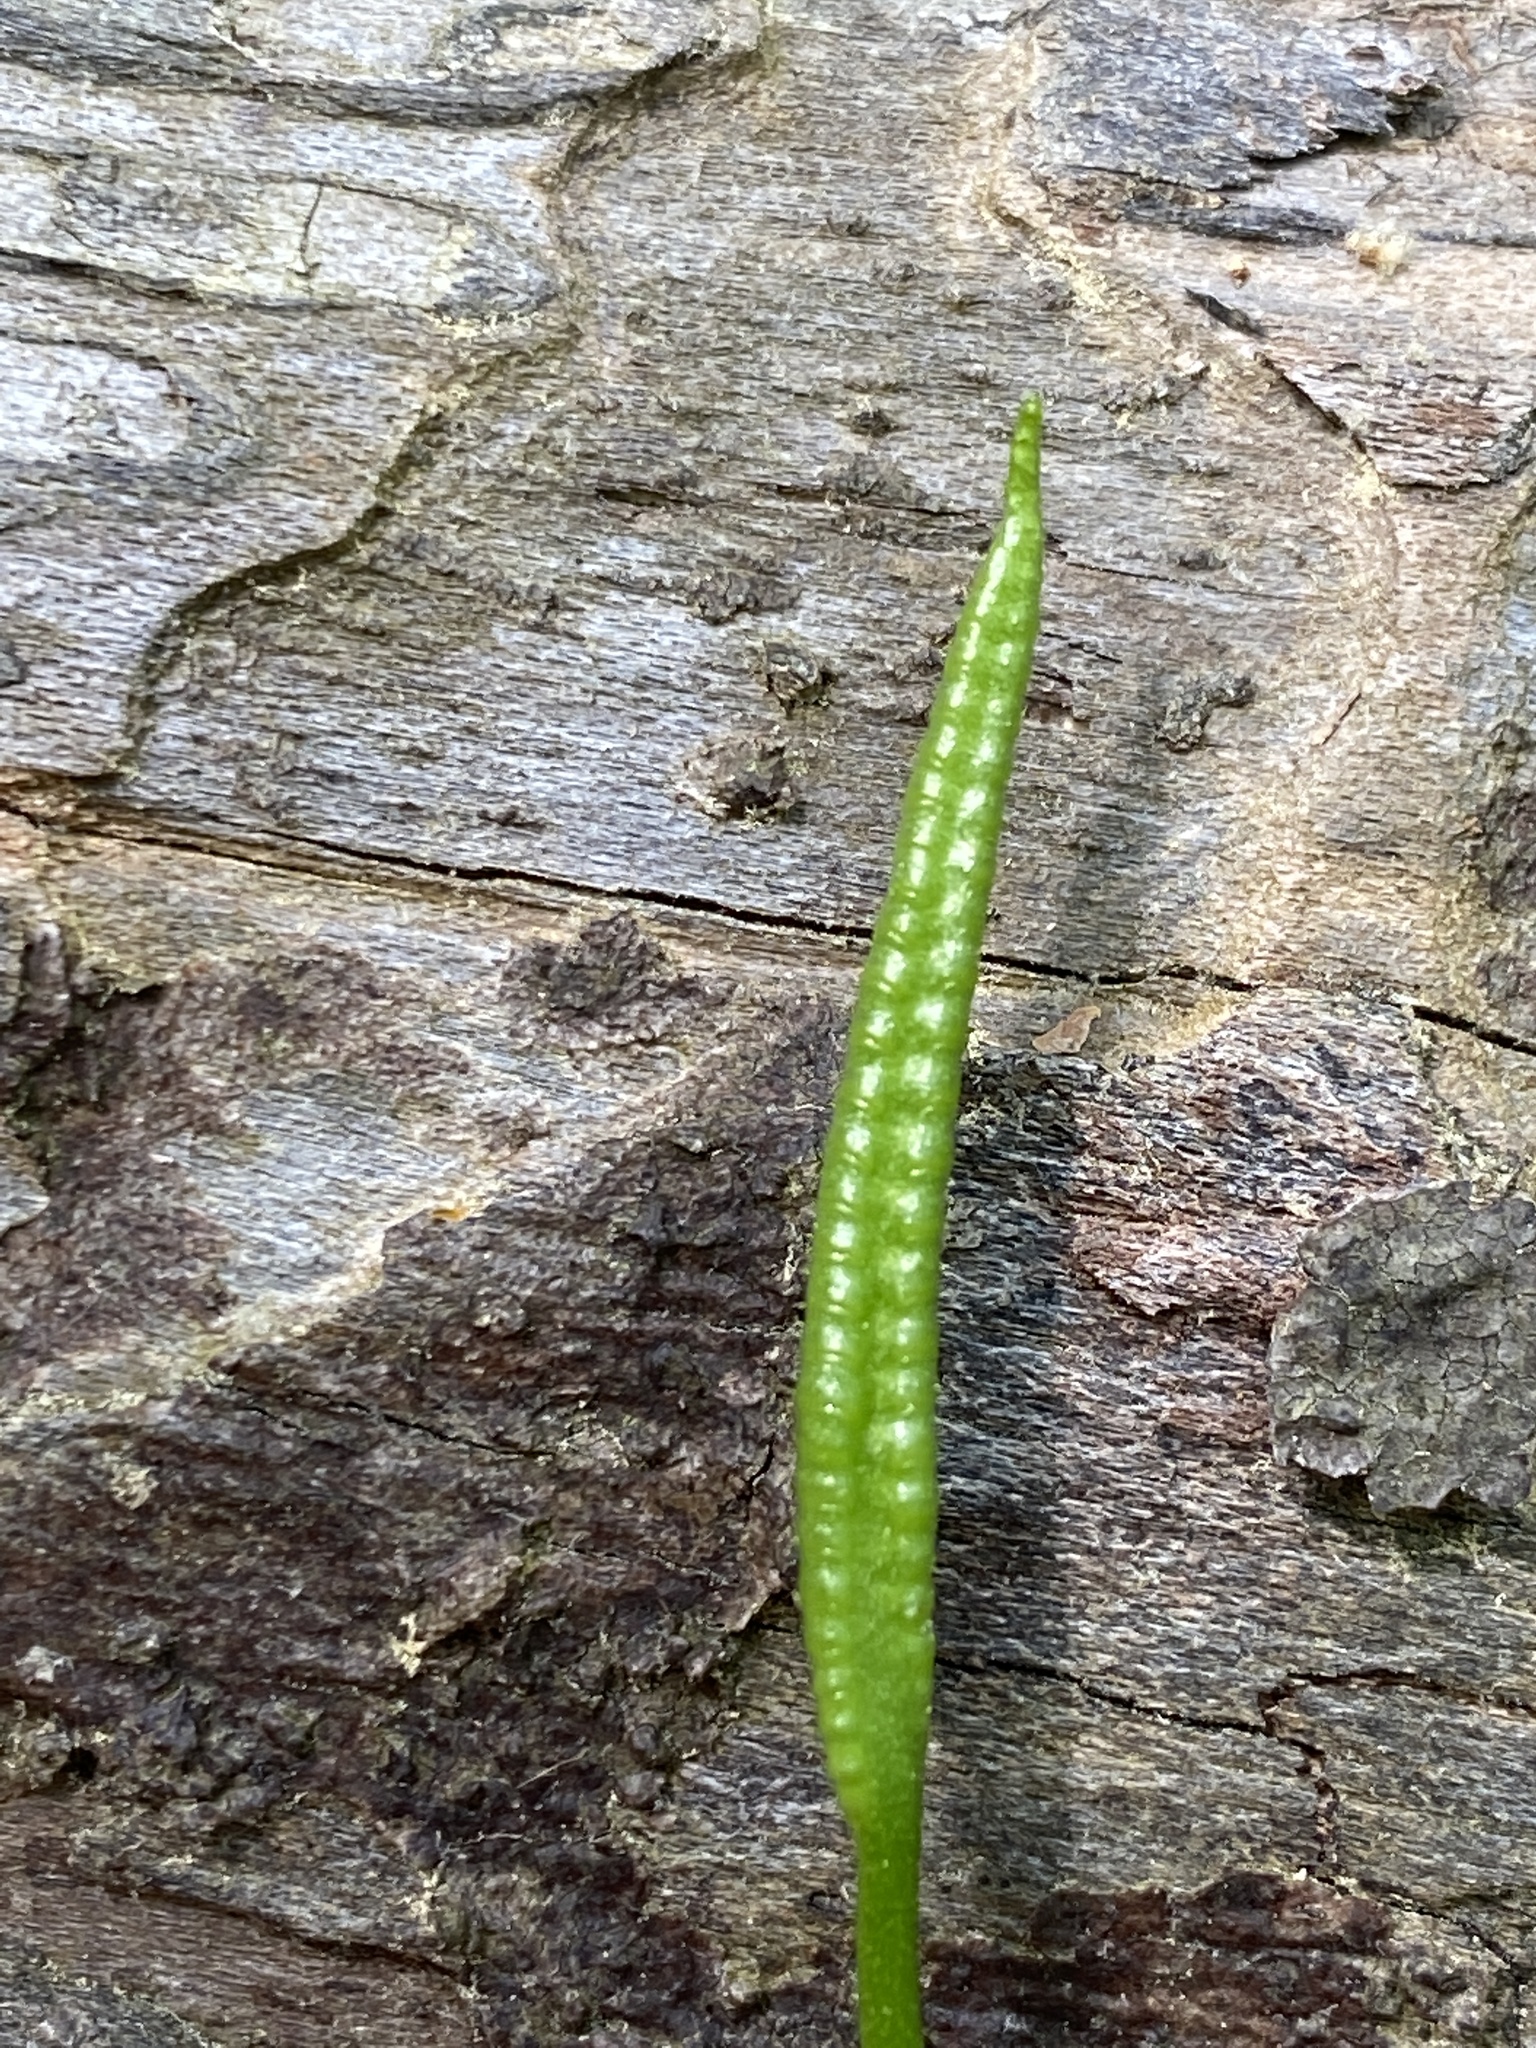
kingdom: Plantae
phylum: Tracheophyta
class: Polypodiopsida
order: Ophioglossales
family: Ophioglossaceae
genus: Ophioglossum
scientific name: Ophioglossum vulgatum
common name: Adder's-tongue
